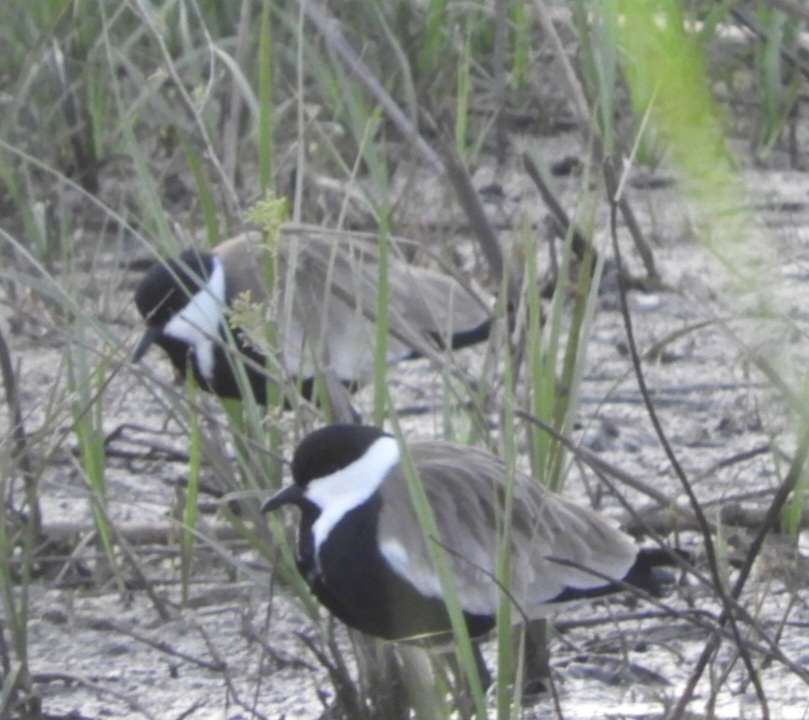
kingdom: Animalia
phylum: Chordata
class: Aves
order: Charadriiformes
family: Charadriidae
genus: Vanellus
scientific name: Vanellus spinosus
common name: Spur-winged lapwing
